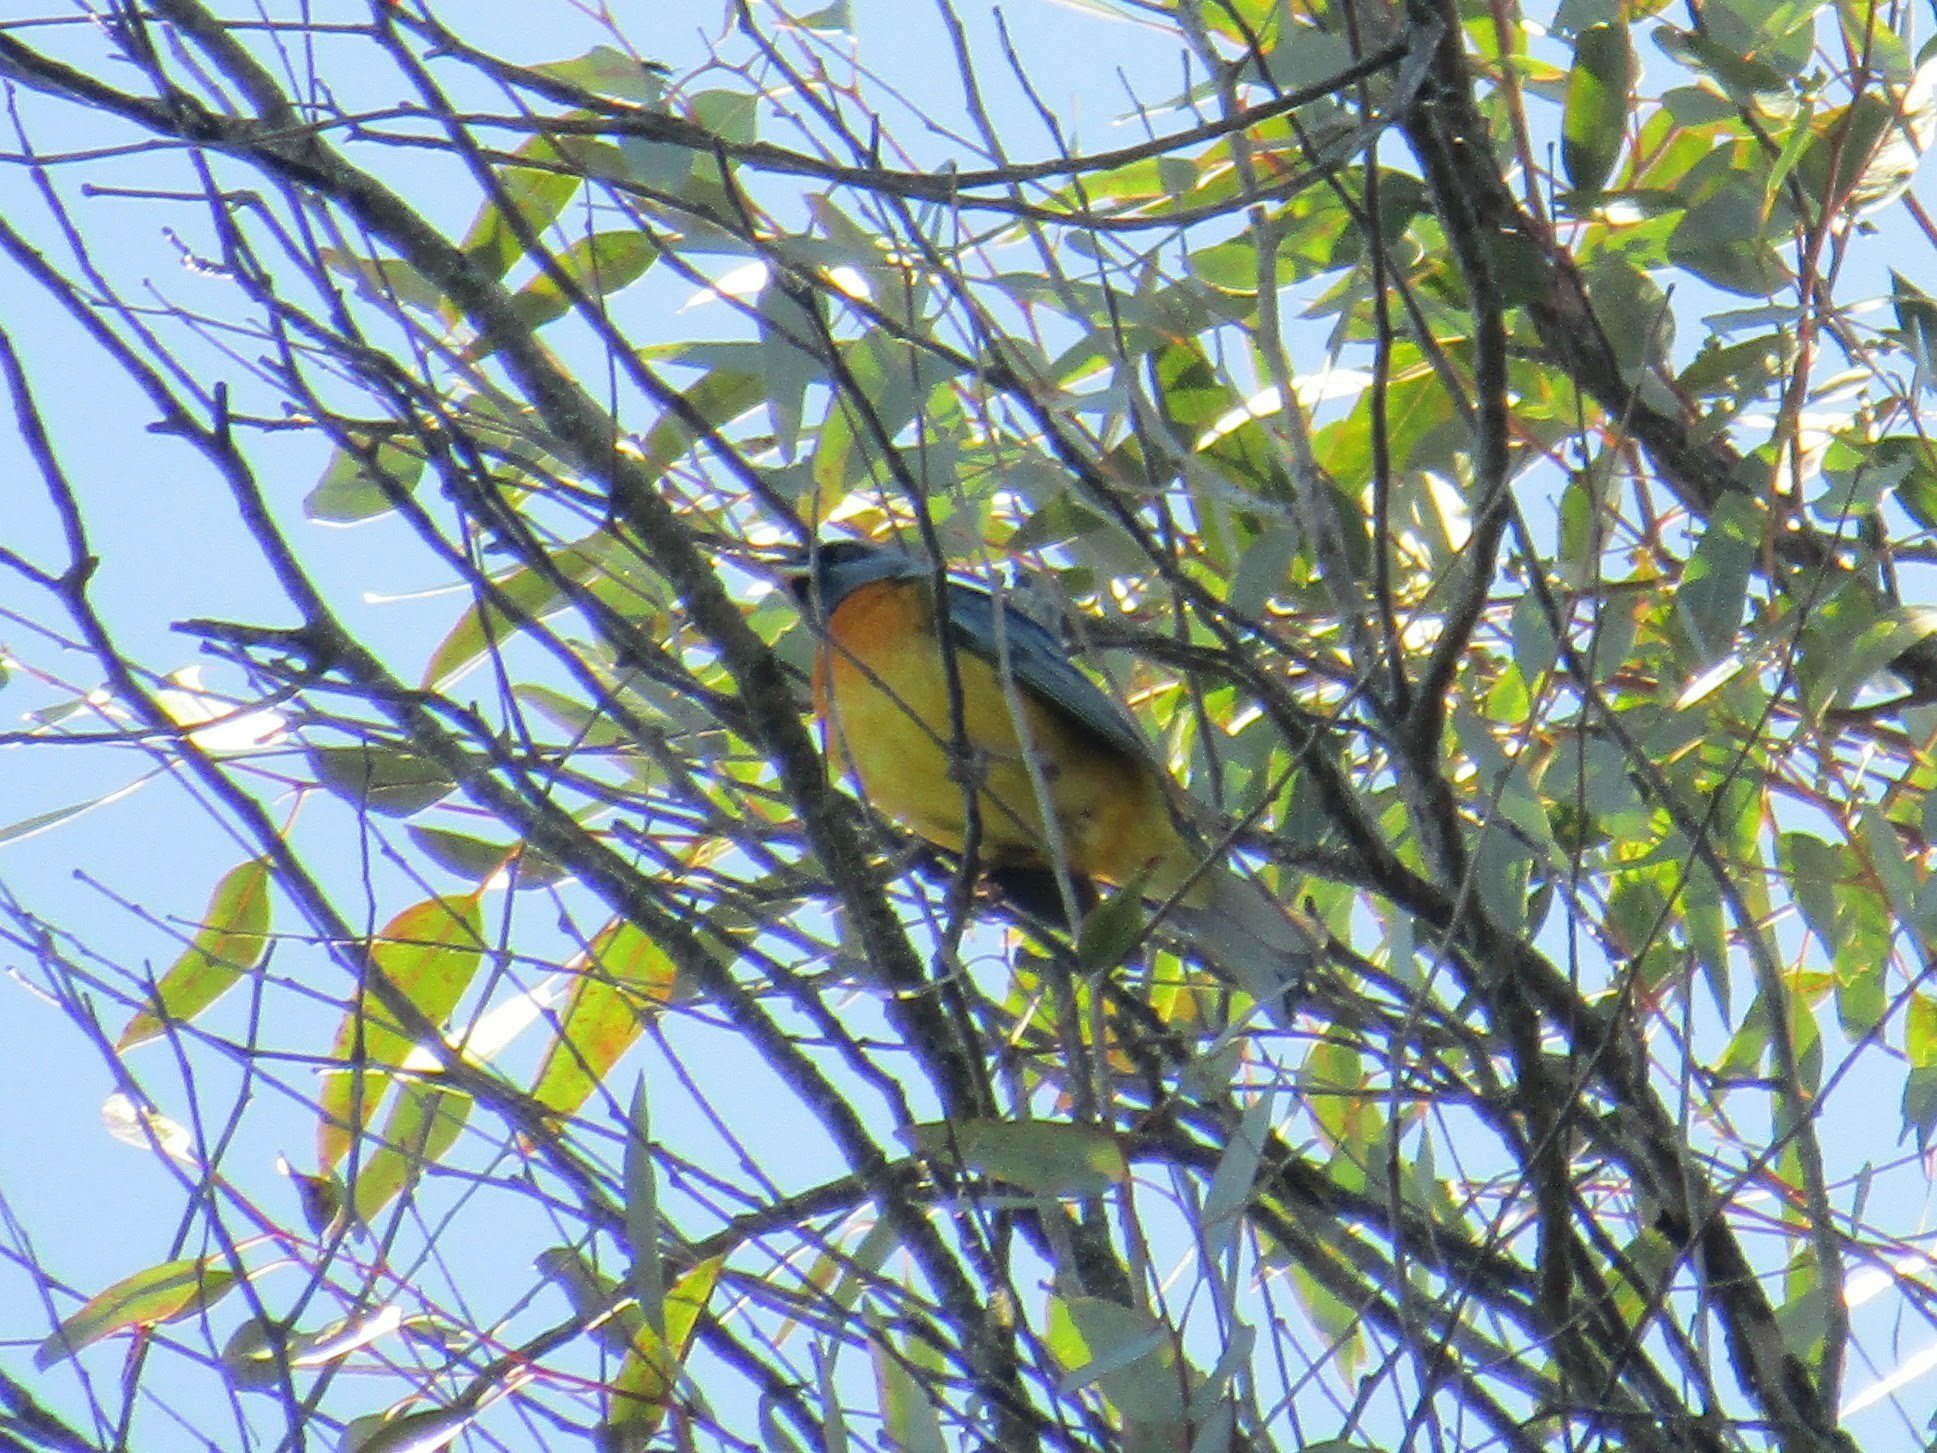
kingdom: Animalia
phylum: Chordata
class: Aves
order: Passeriformes
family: Thraupidae
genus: Rauenia
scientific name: Rauenia bonariensis
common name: Blue-and-yellow tanager
